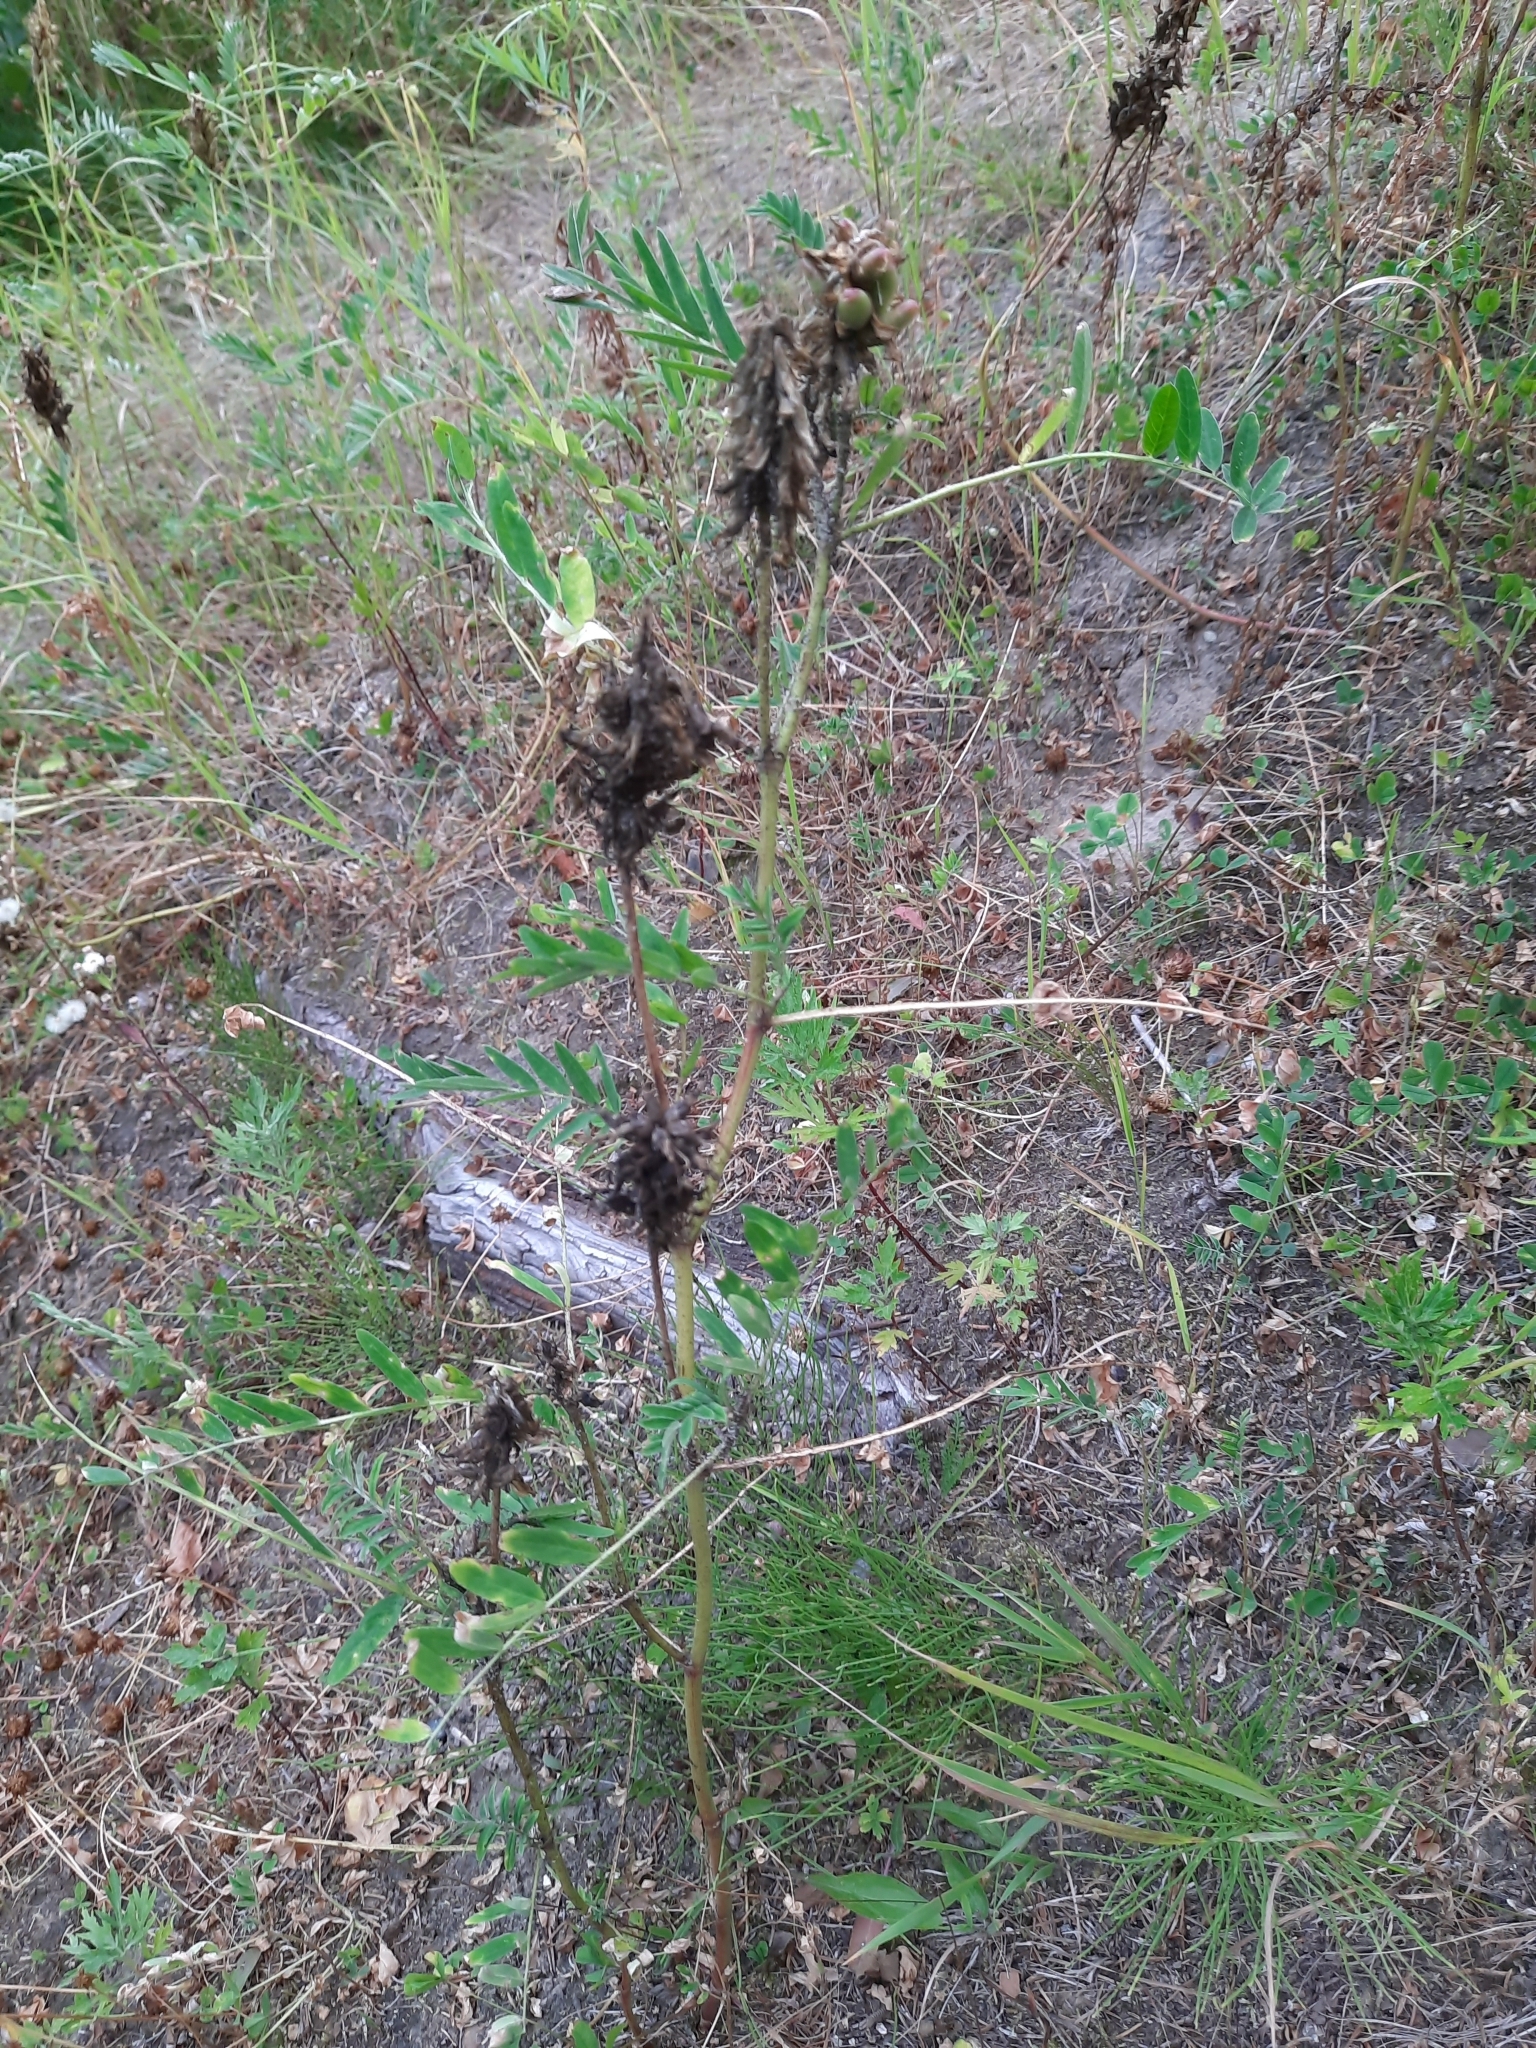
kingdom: Plantae
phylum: Tracheophyta
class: Magnoliopsida
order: Fabales
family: Fabaceae
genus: Astragalus
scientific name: Astragalus uliginosus
